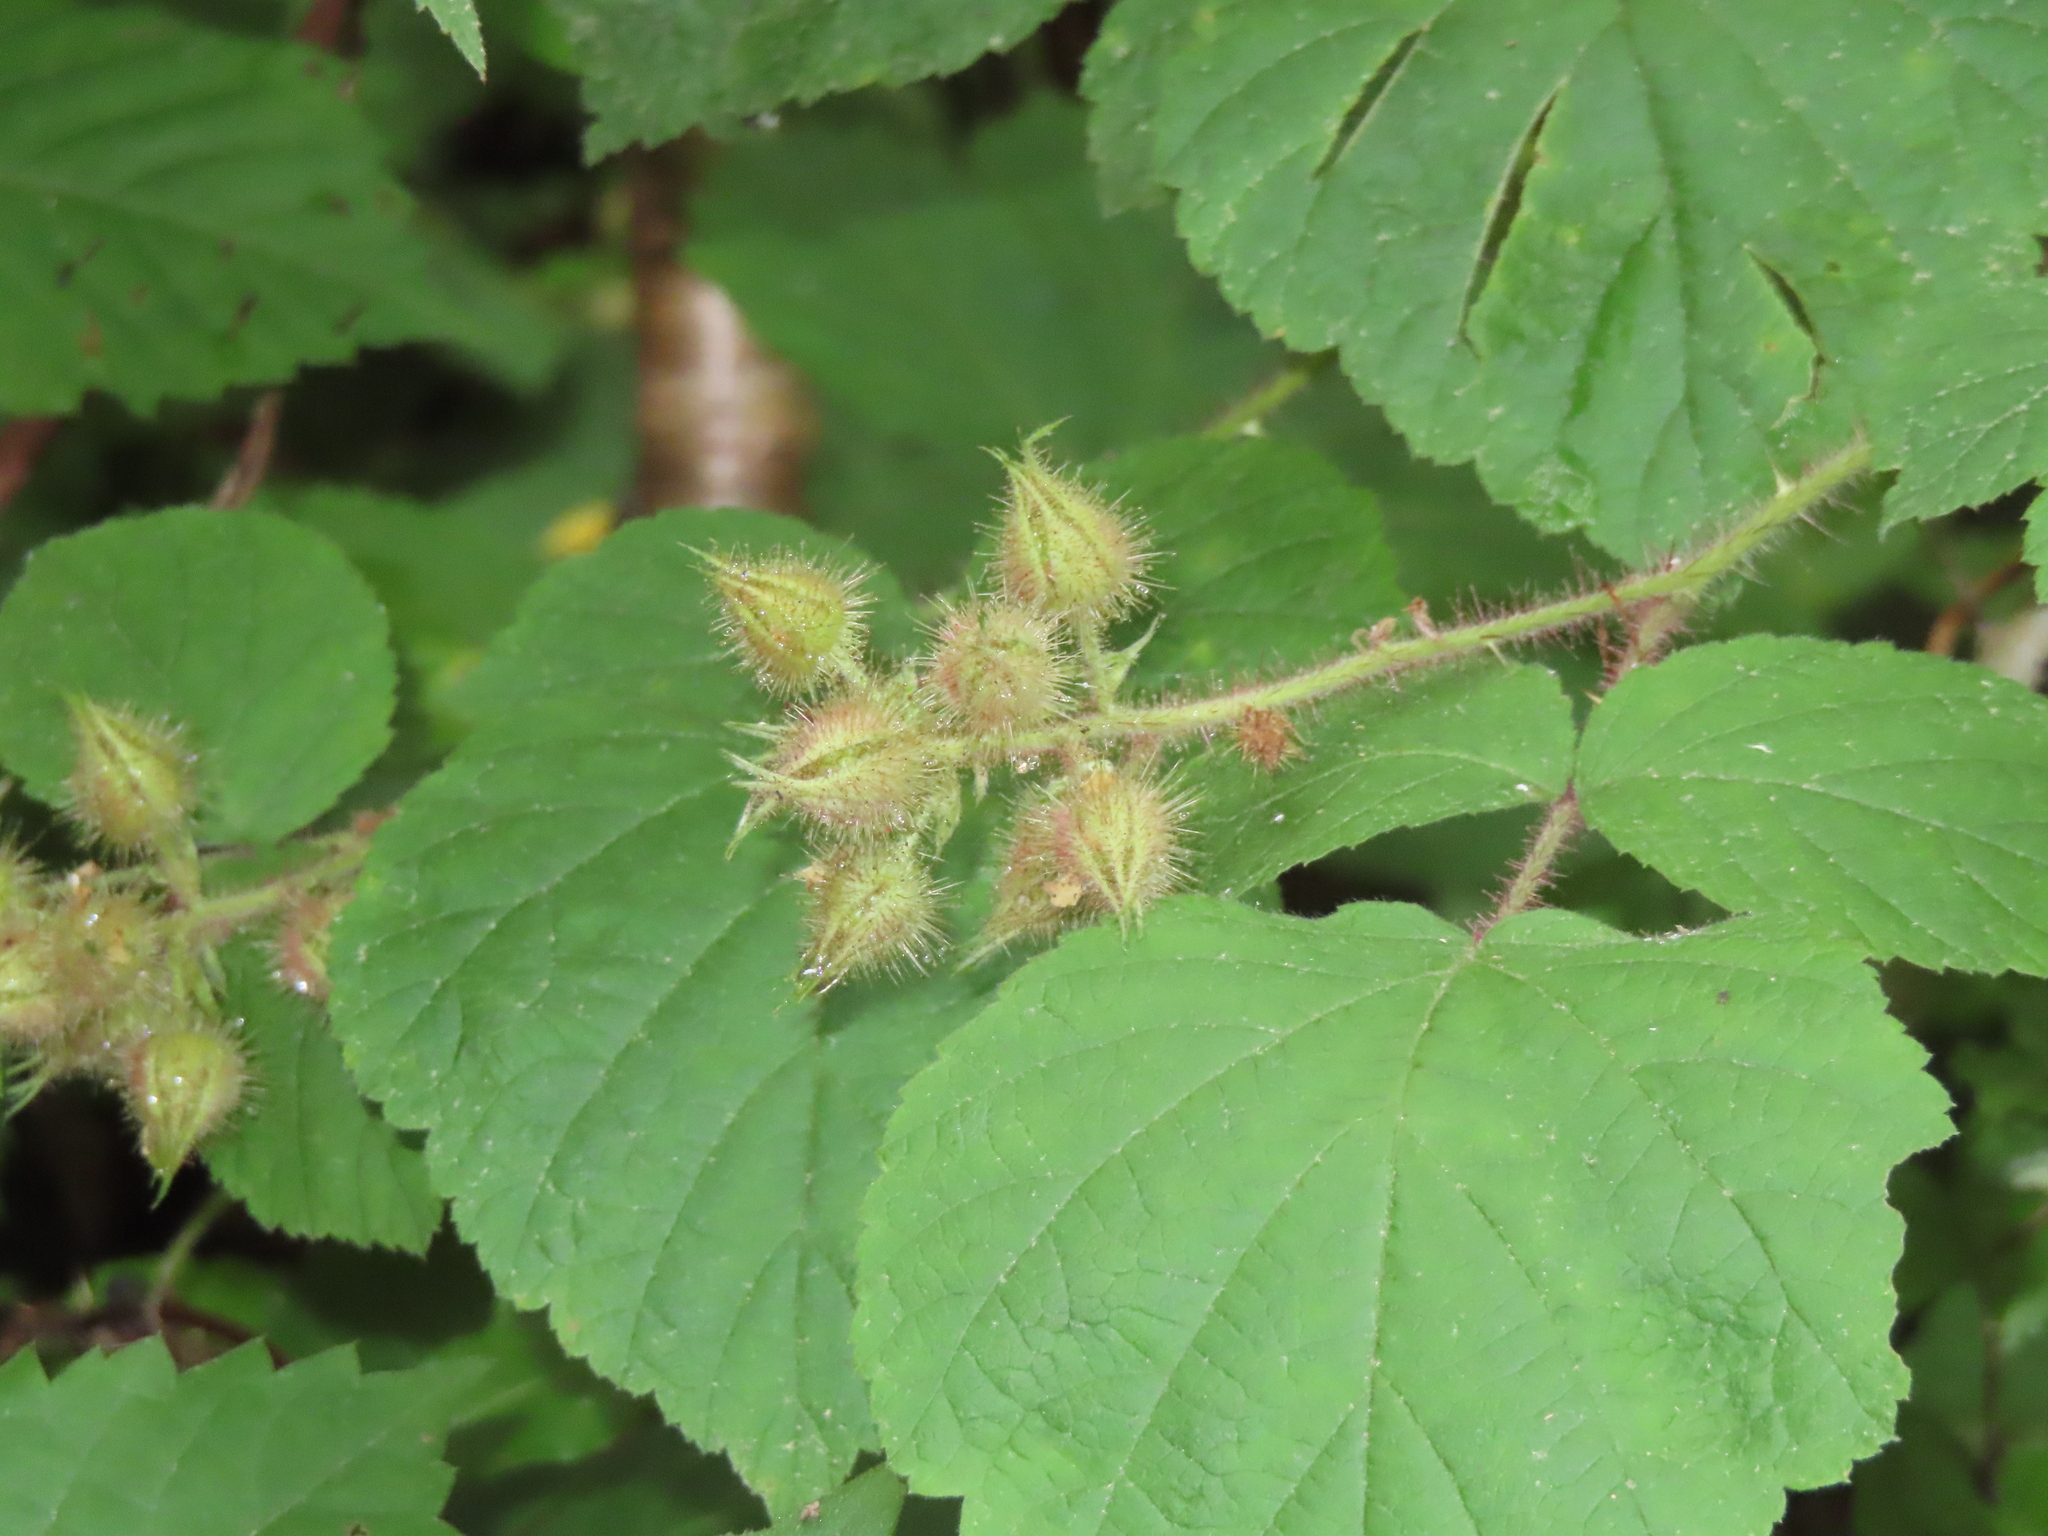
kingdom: Plantae
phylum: Tracheophyta
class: Magnoliopsida
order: Rosales
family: Rosaceae
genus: Rubus
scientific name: Rubus phoenicolasius
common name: Japanese wineberry
